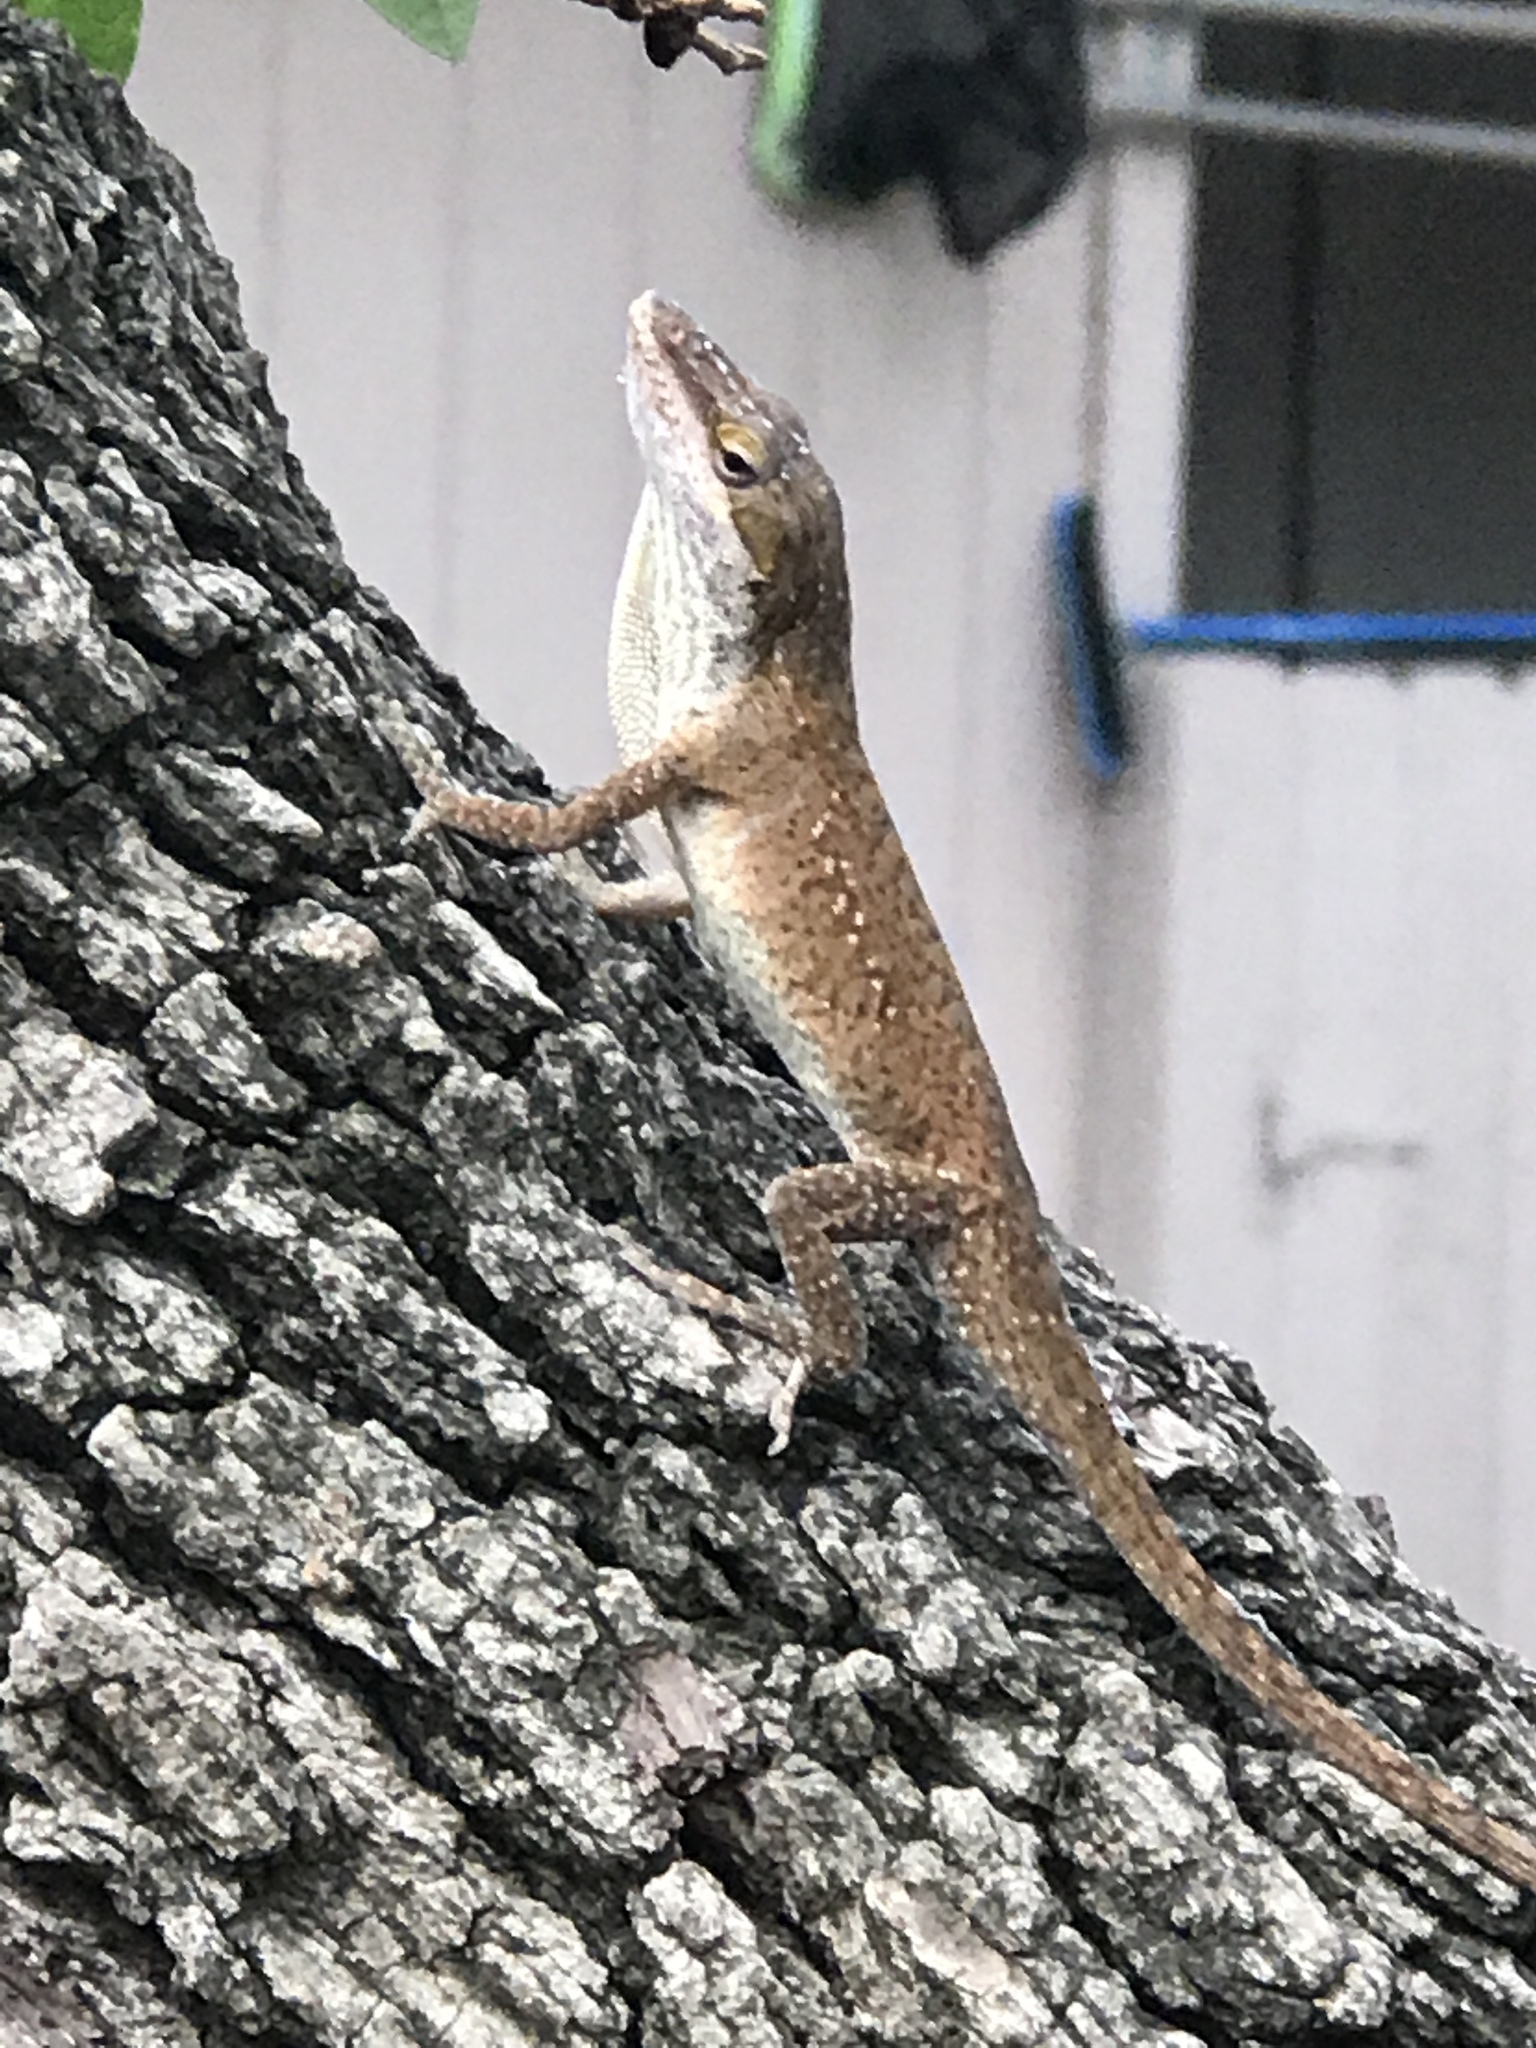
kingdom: Animalia
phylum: Chordata
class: Squamata
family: Dactyloidae
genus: Anolis
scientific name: Anolis carolinensis
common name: Green anole
